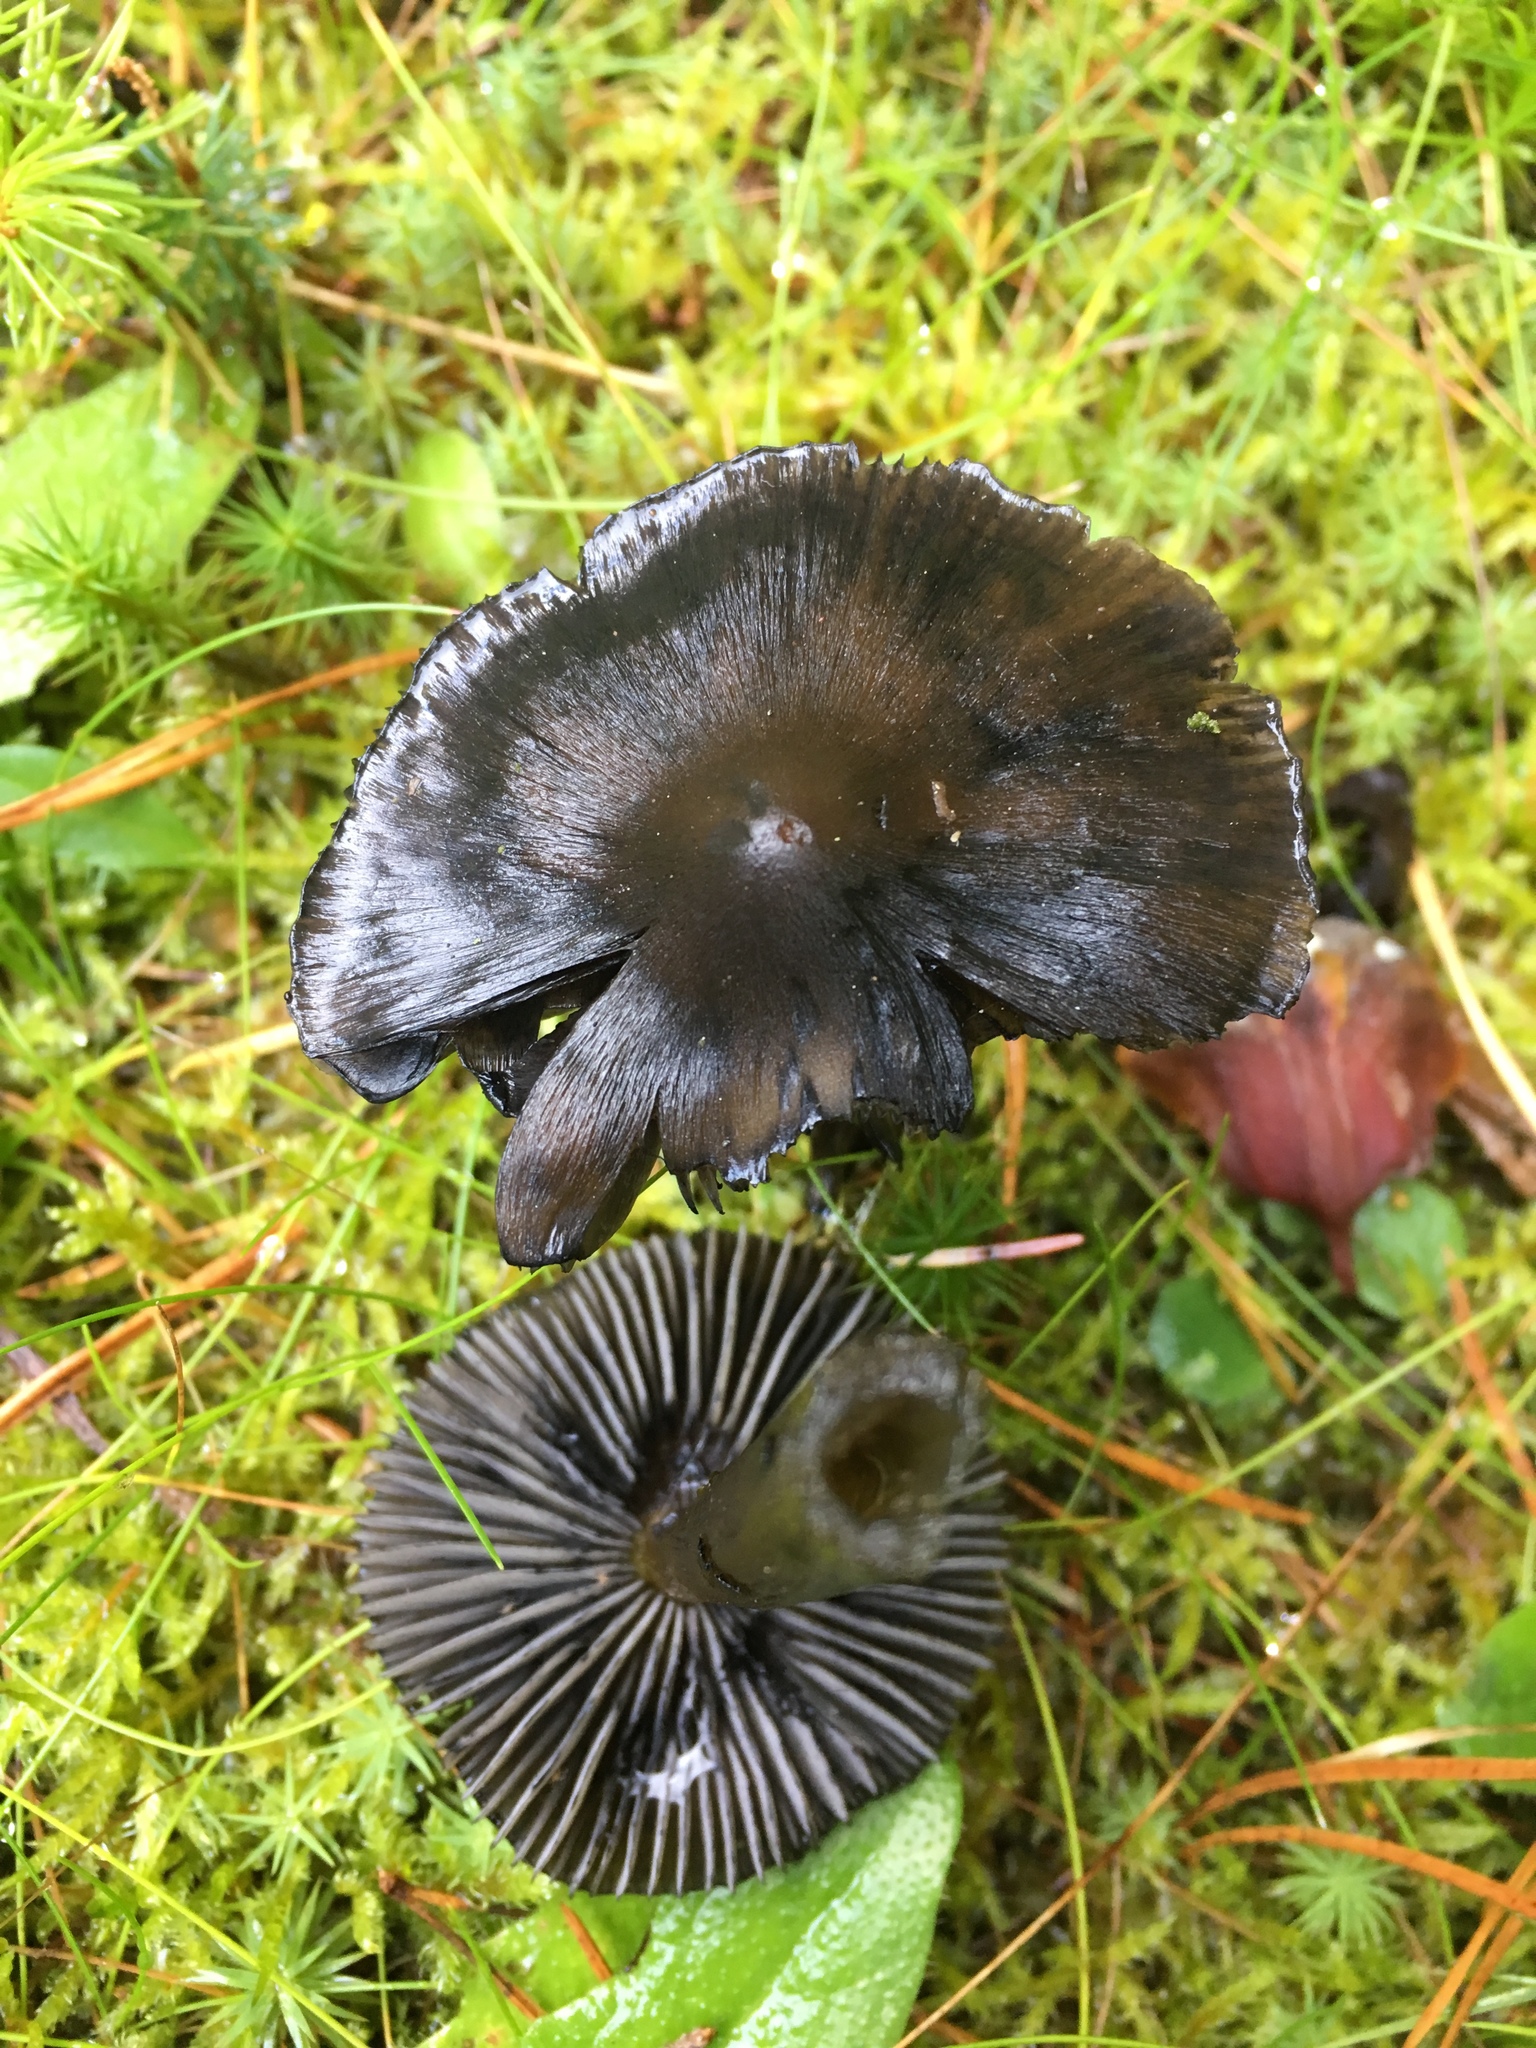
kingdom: Fungi
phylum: Basidiomycota
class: Agaricomycetes
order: Agaricales
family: Hygrophoraceae
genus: Hygrocybe
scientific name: Hygrocybe conica
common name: Blackening wax-cap
